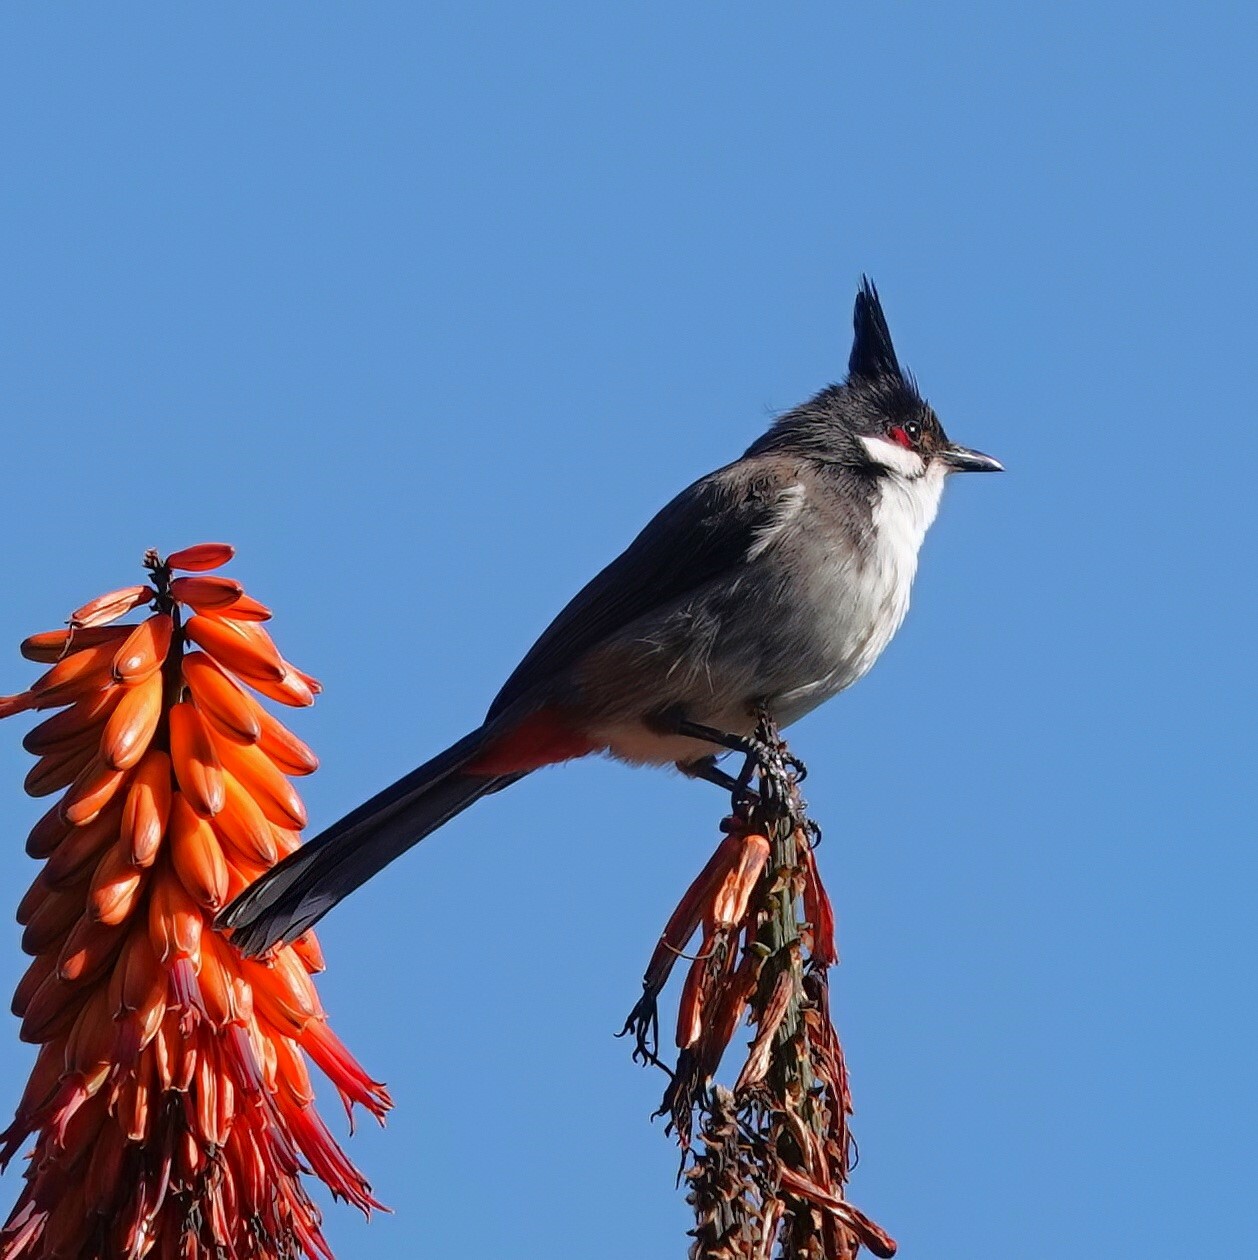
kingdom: Animalia
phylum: Chordata
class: Aves
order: Passeriformes
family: Pycnonotidae
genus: Pycnonotus
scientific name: Pycnonotus jocosus
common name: Red-whiskered bulbul
